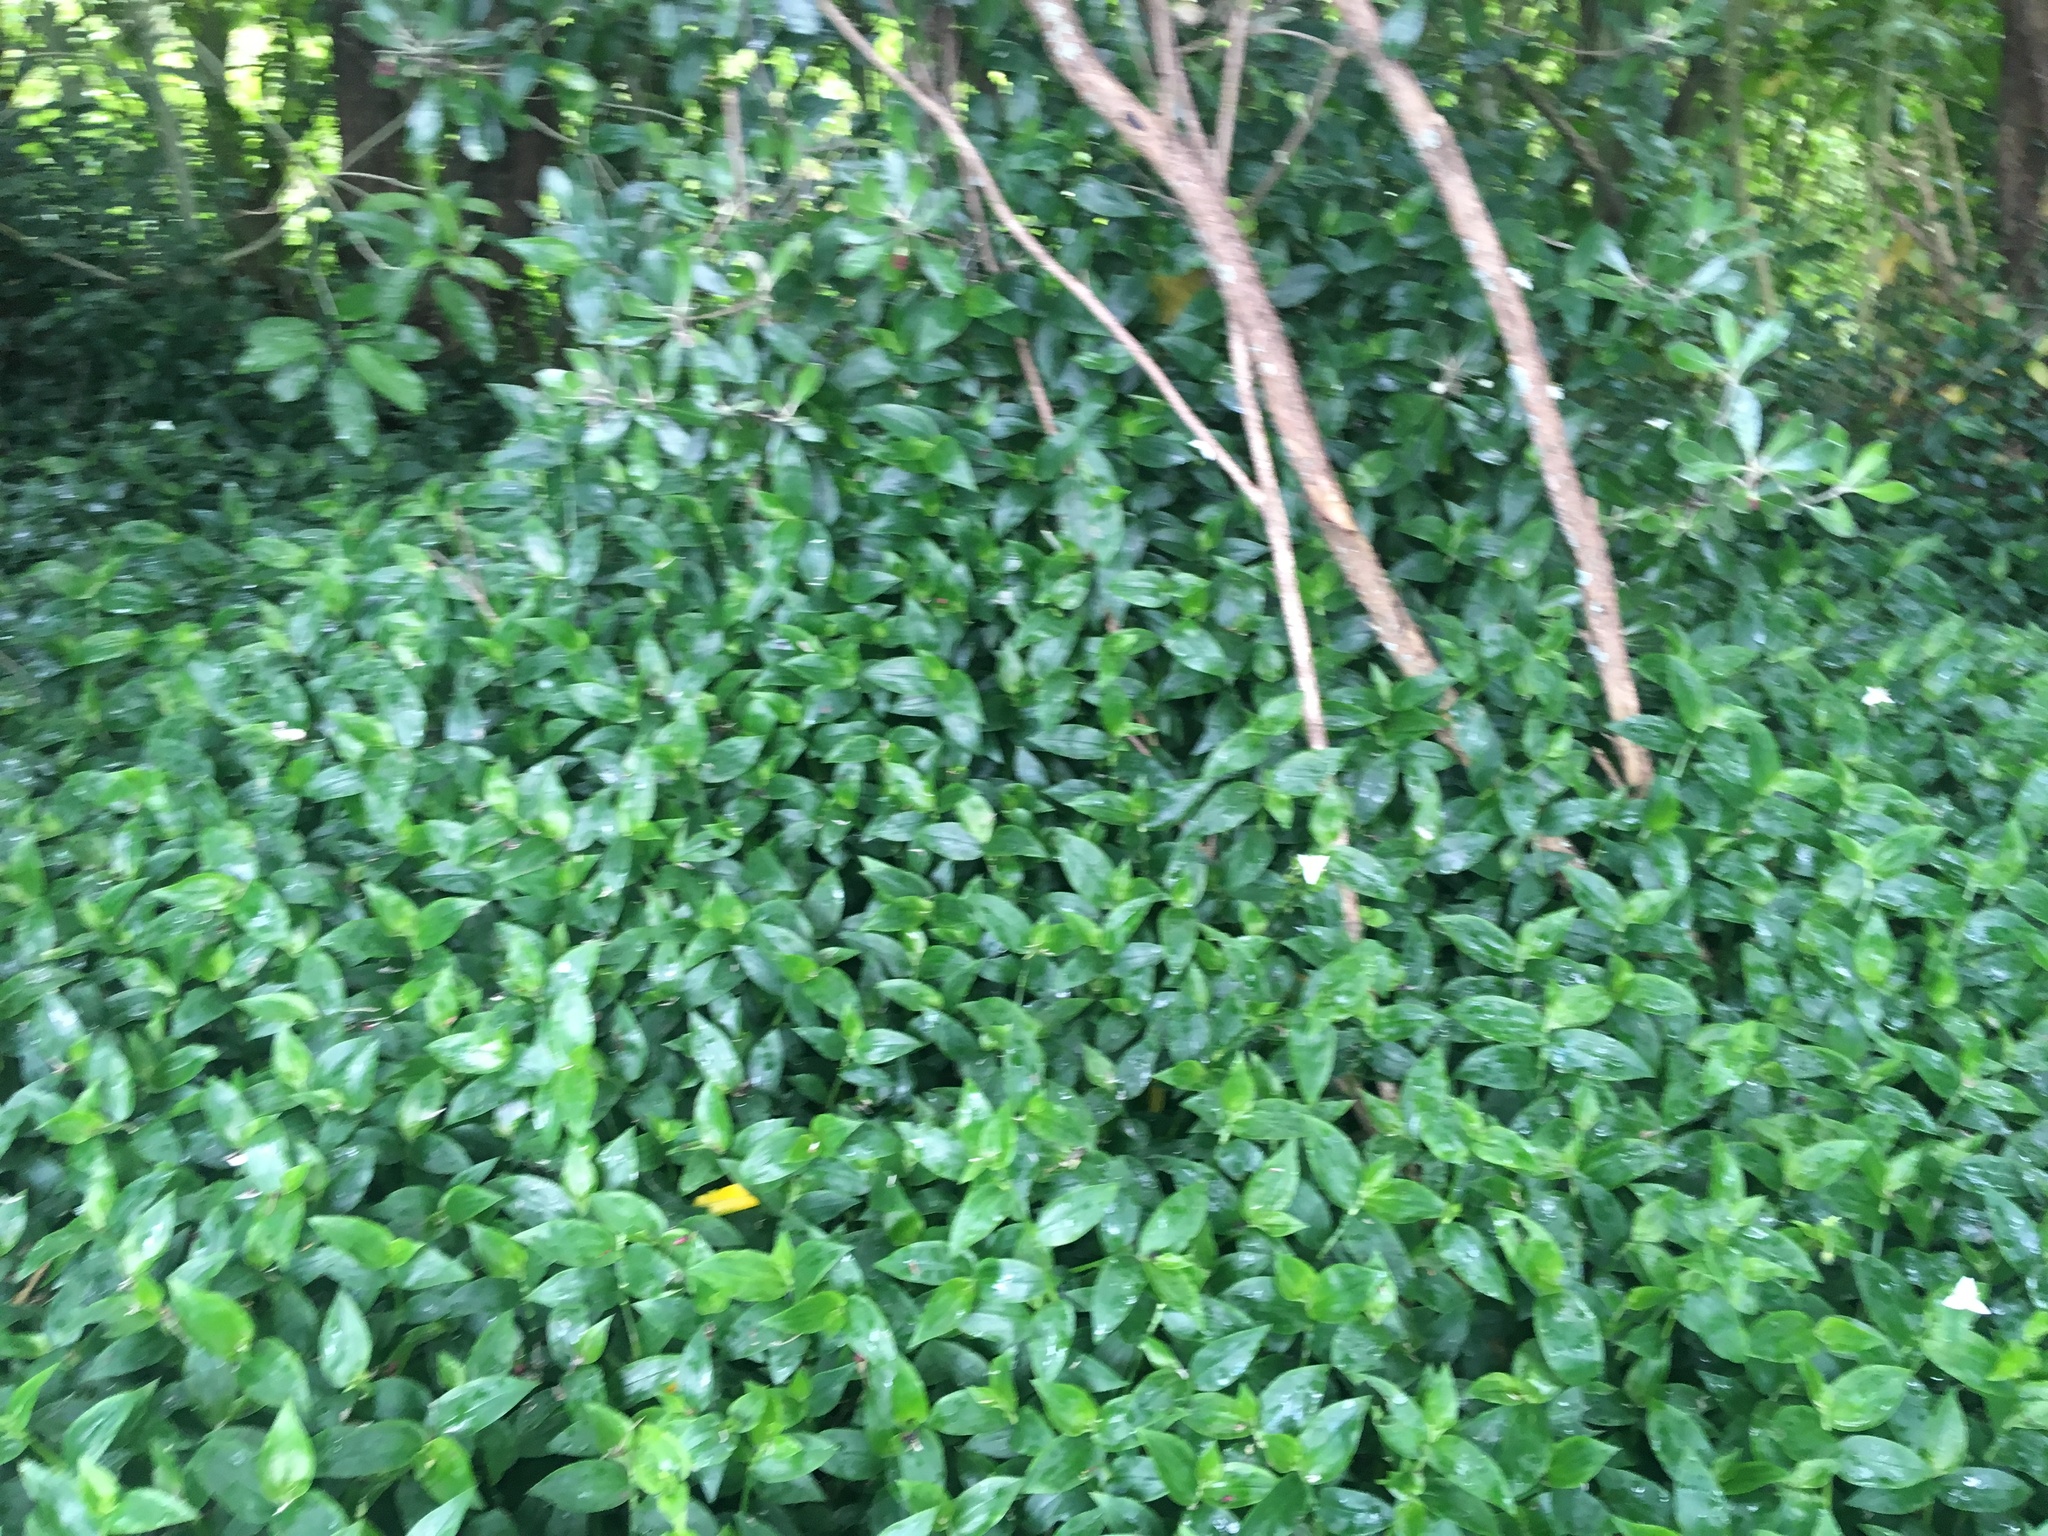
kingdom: Plantae
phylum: Tracheophyta
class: Liliopsida
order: Commelinales
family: Commelinaceae
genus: Tradescantia
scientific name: Tradescantia fluminensis
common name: Wandering-jew
